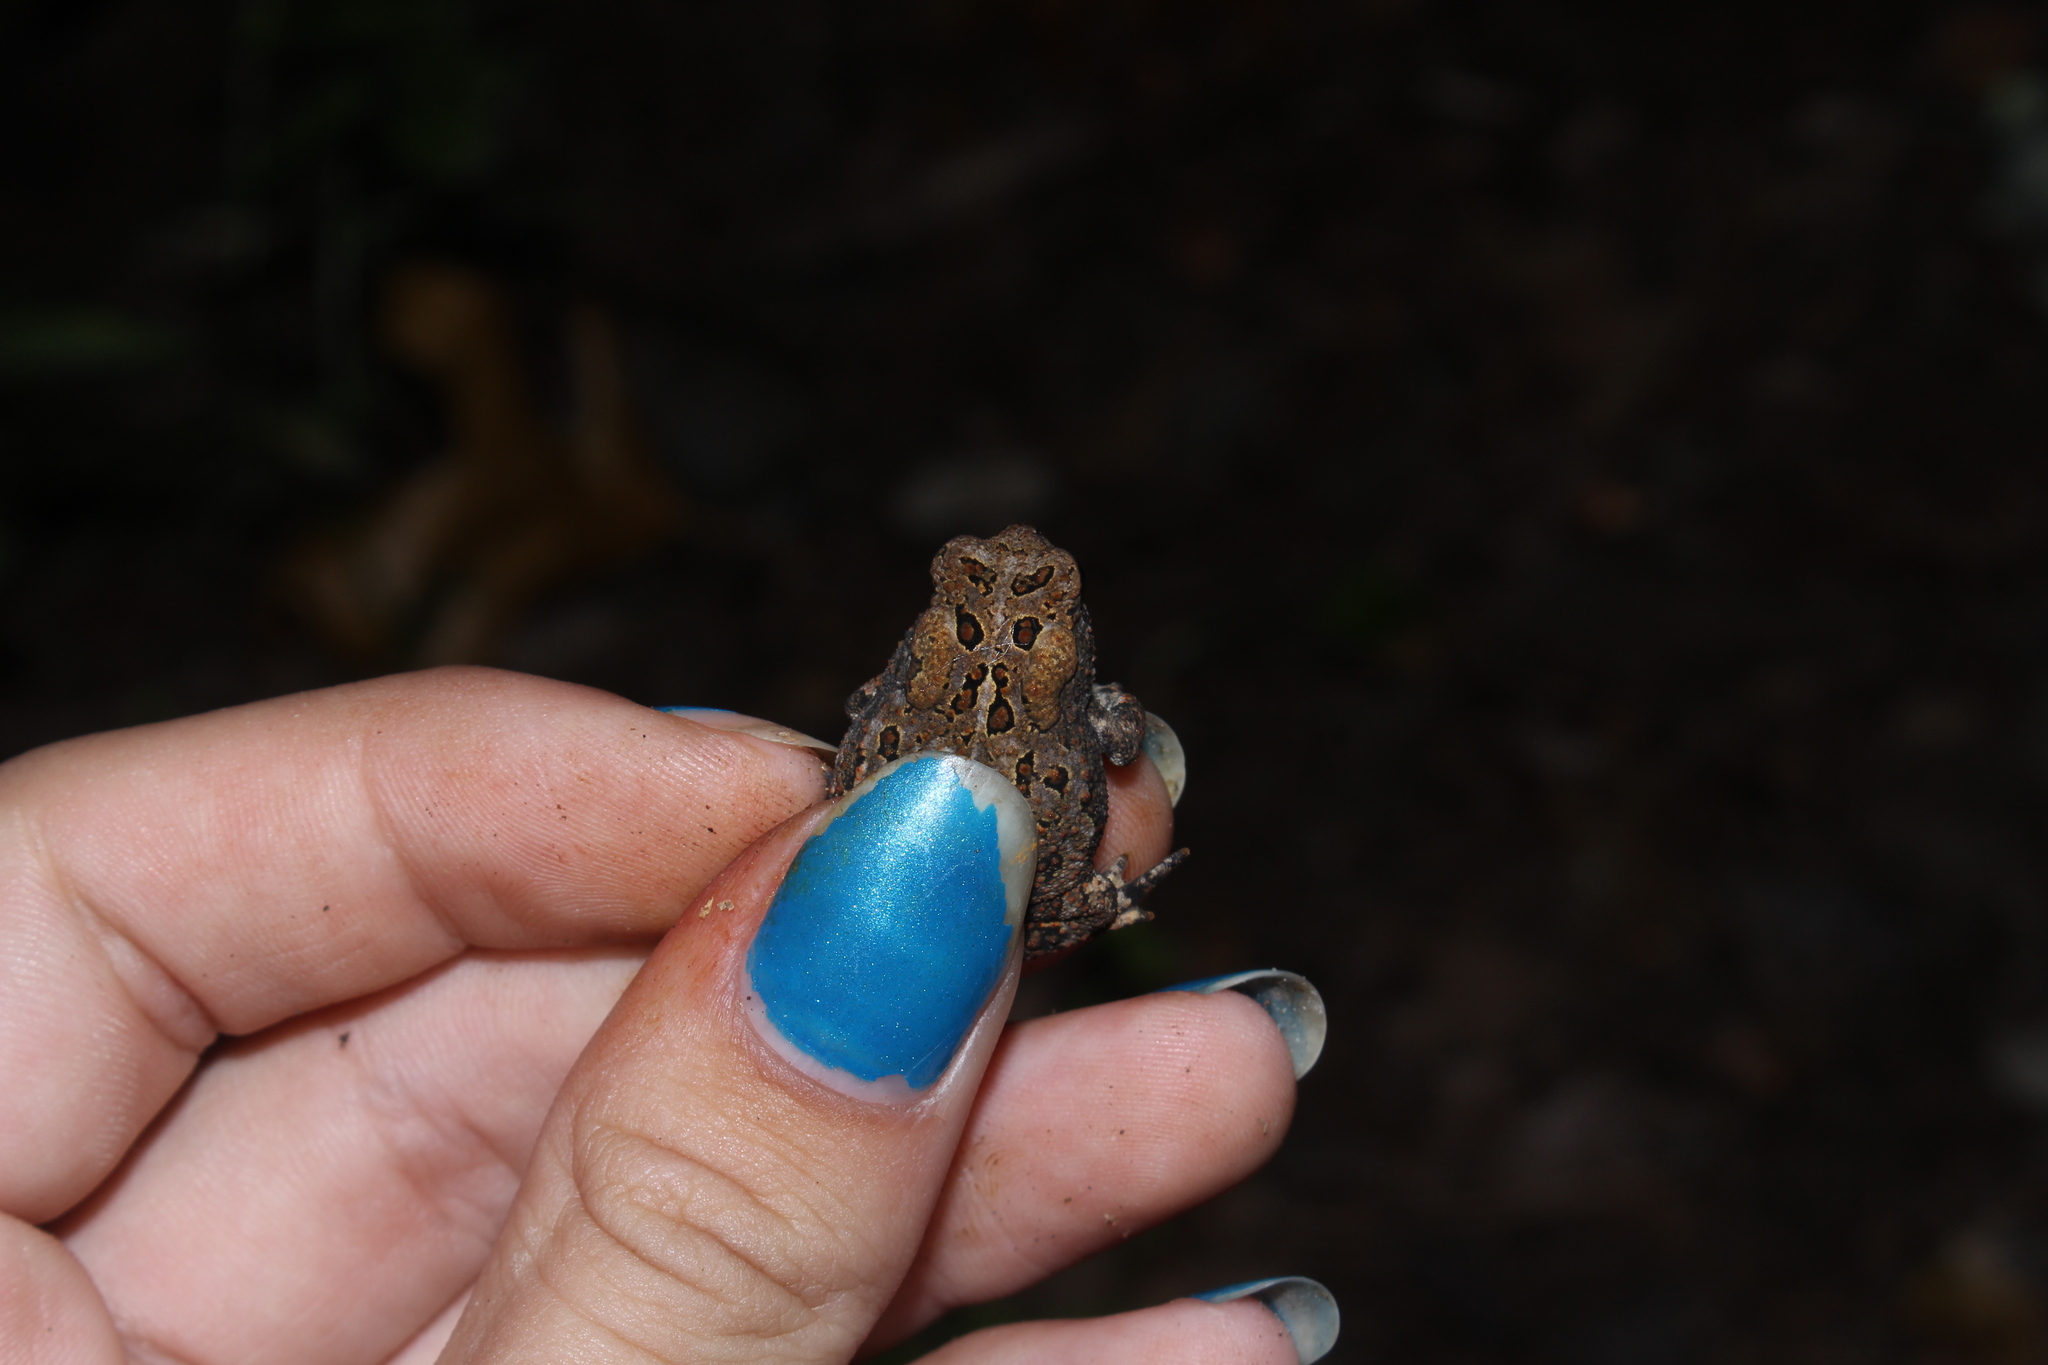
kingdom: Animalia
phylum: Chordata
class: Amphibia
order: Anura
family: Bufonidae
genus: Anaxyrus
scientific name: Anaxyrus americanus
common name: American toad
